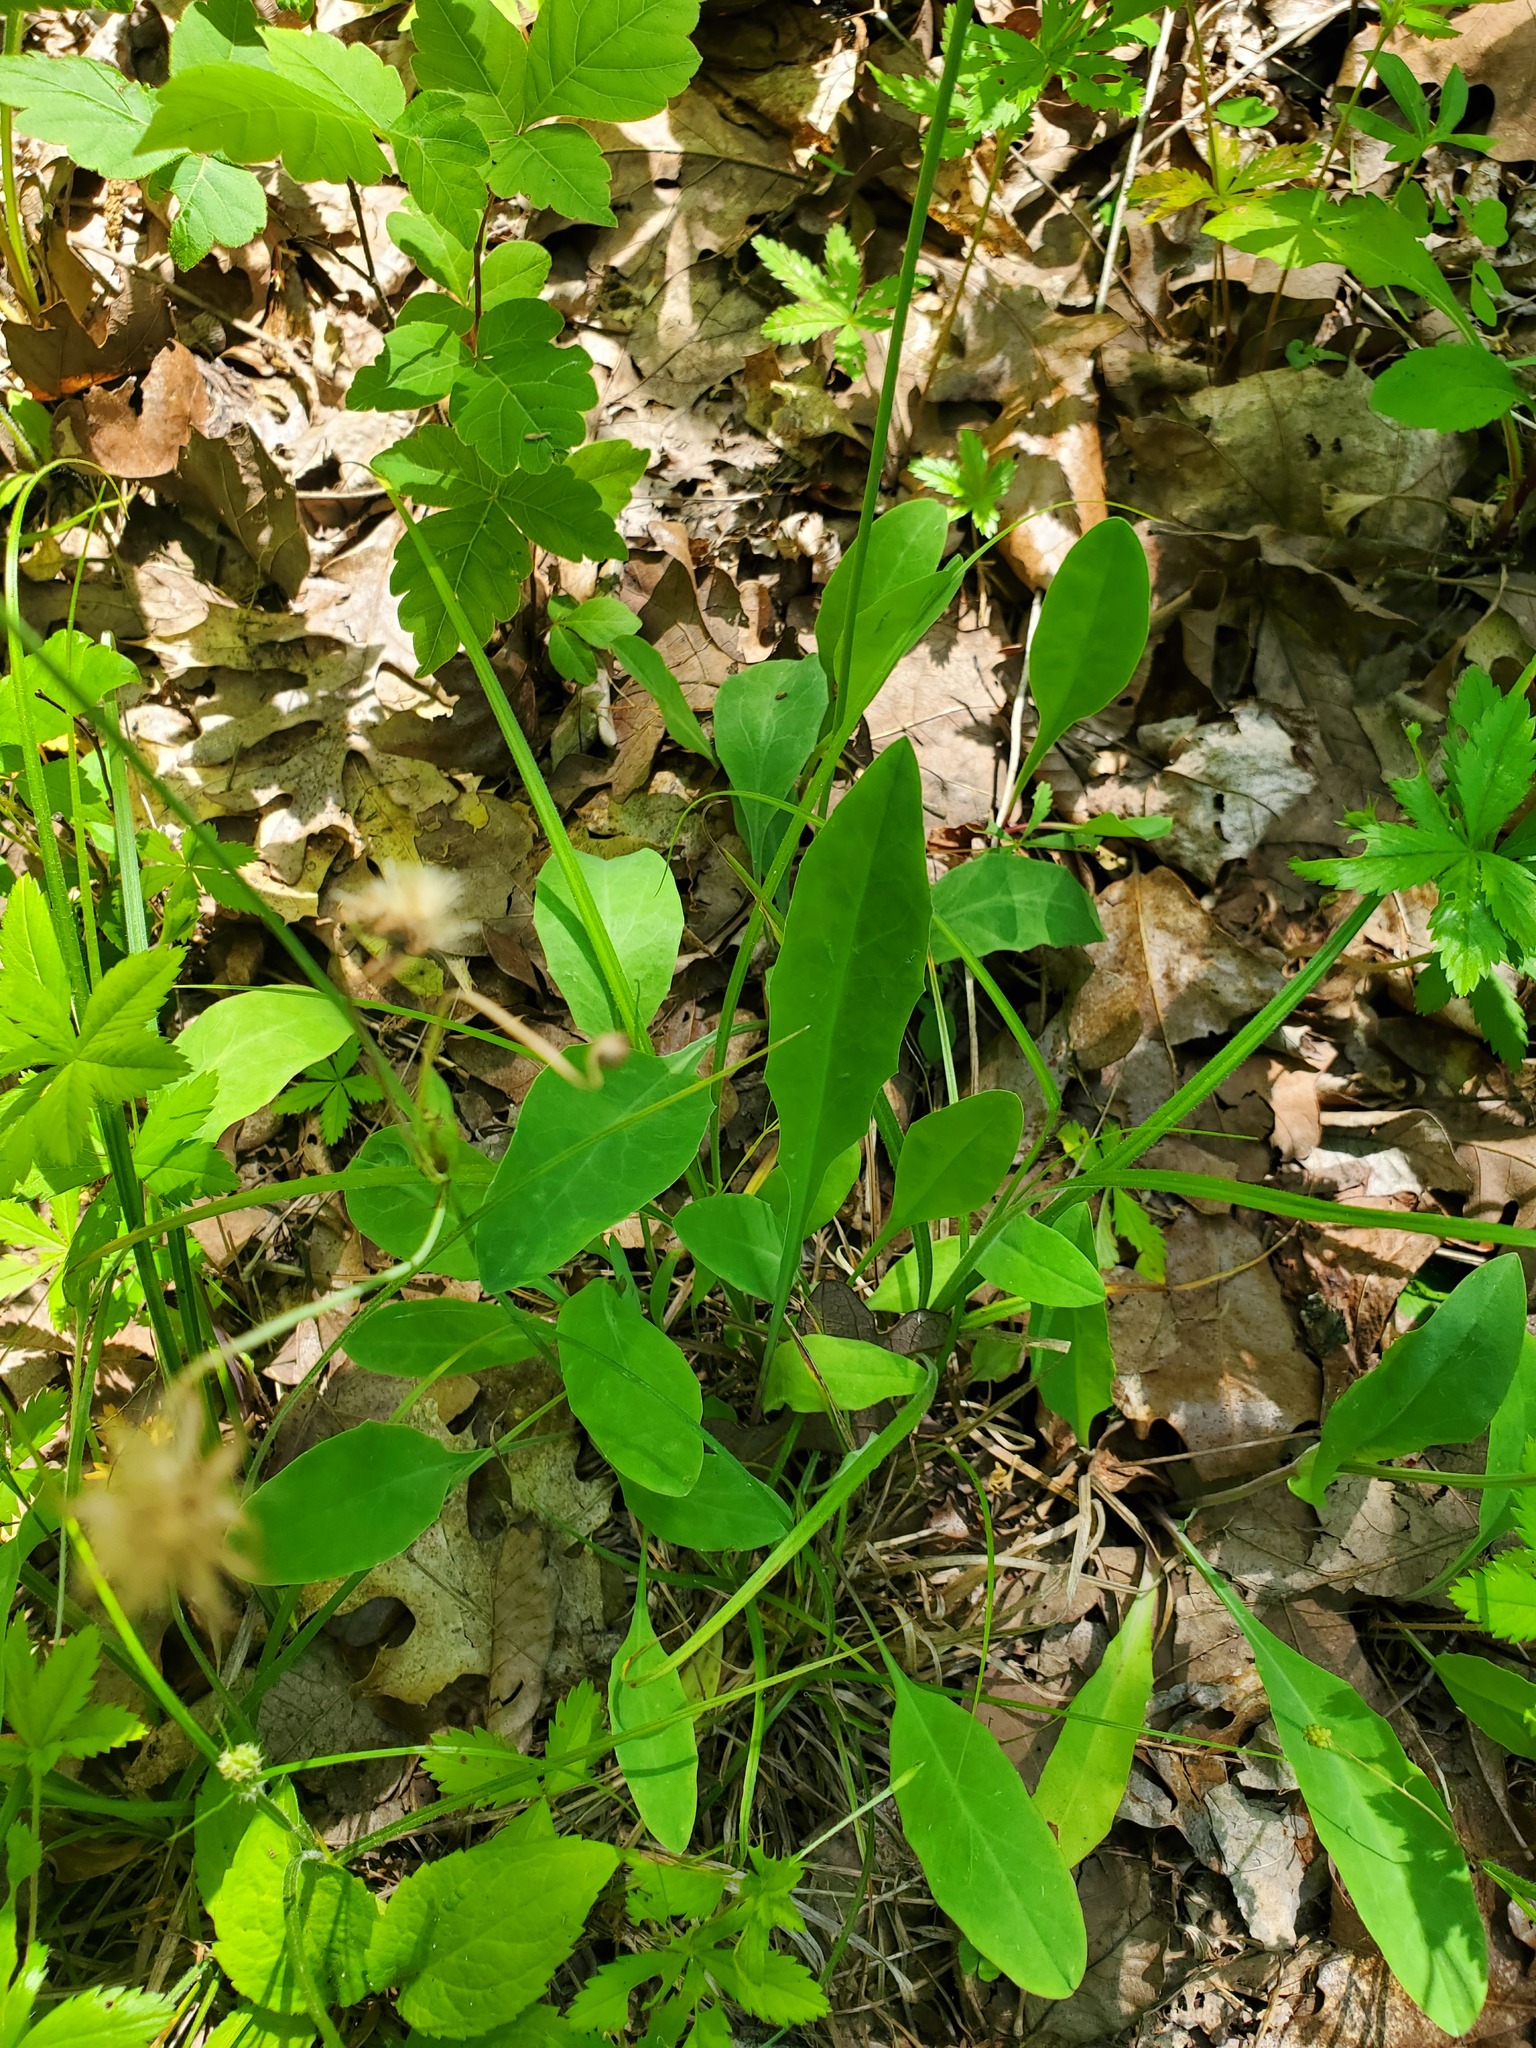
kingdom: Plantae
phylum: Tracheophyta
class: Magnoliopsida
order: Asterales
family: Asteraceae
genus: Krigia
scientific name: Krigia biflora
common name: Orange dwarf-dandelion
